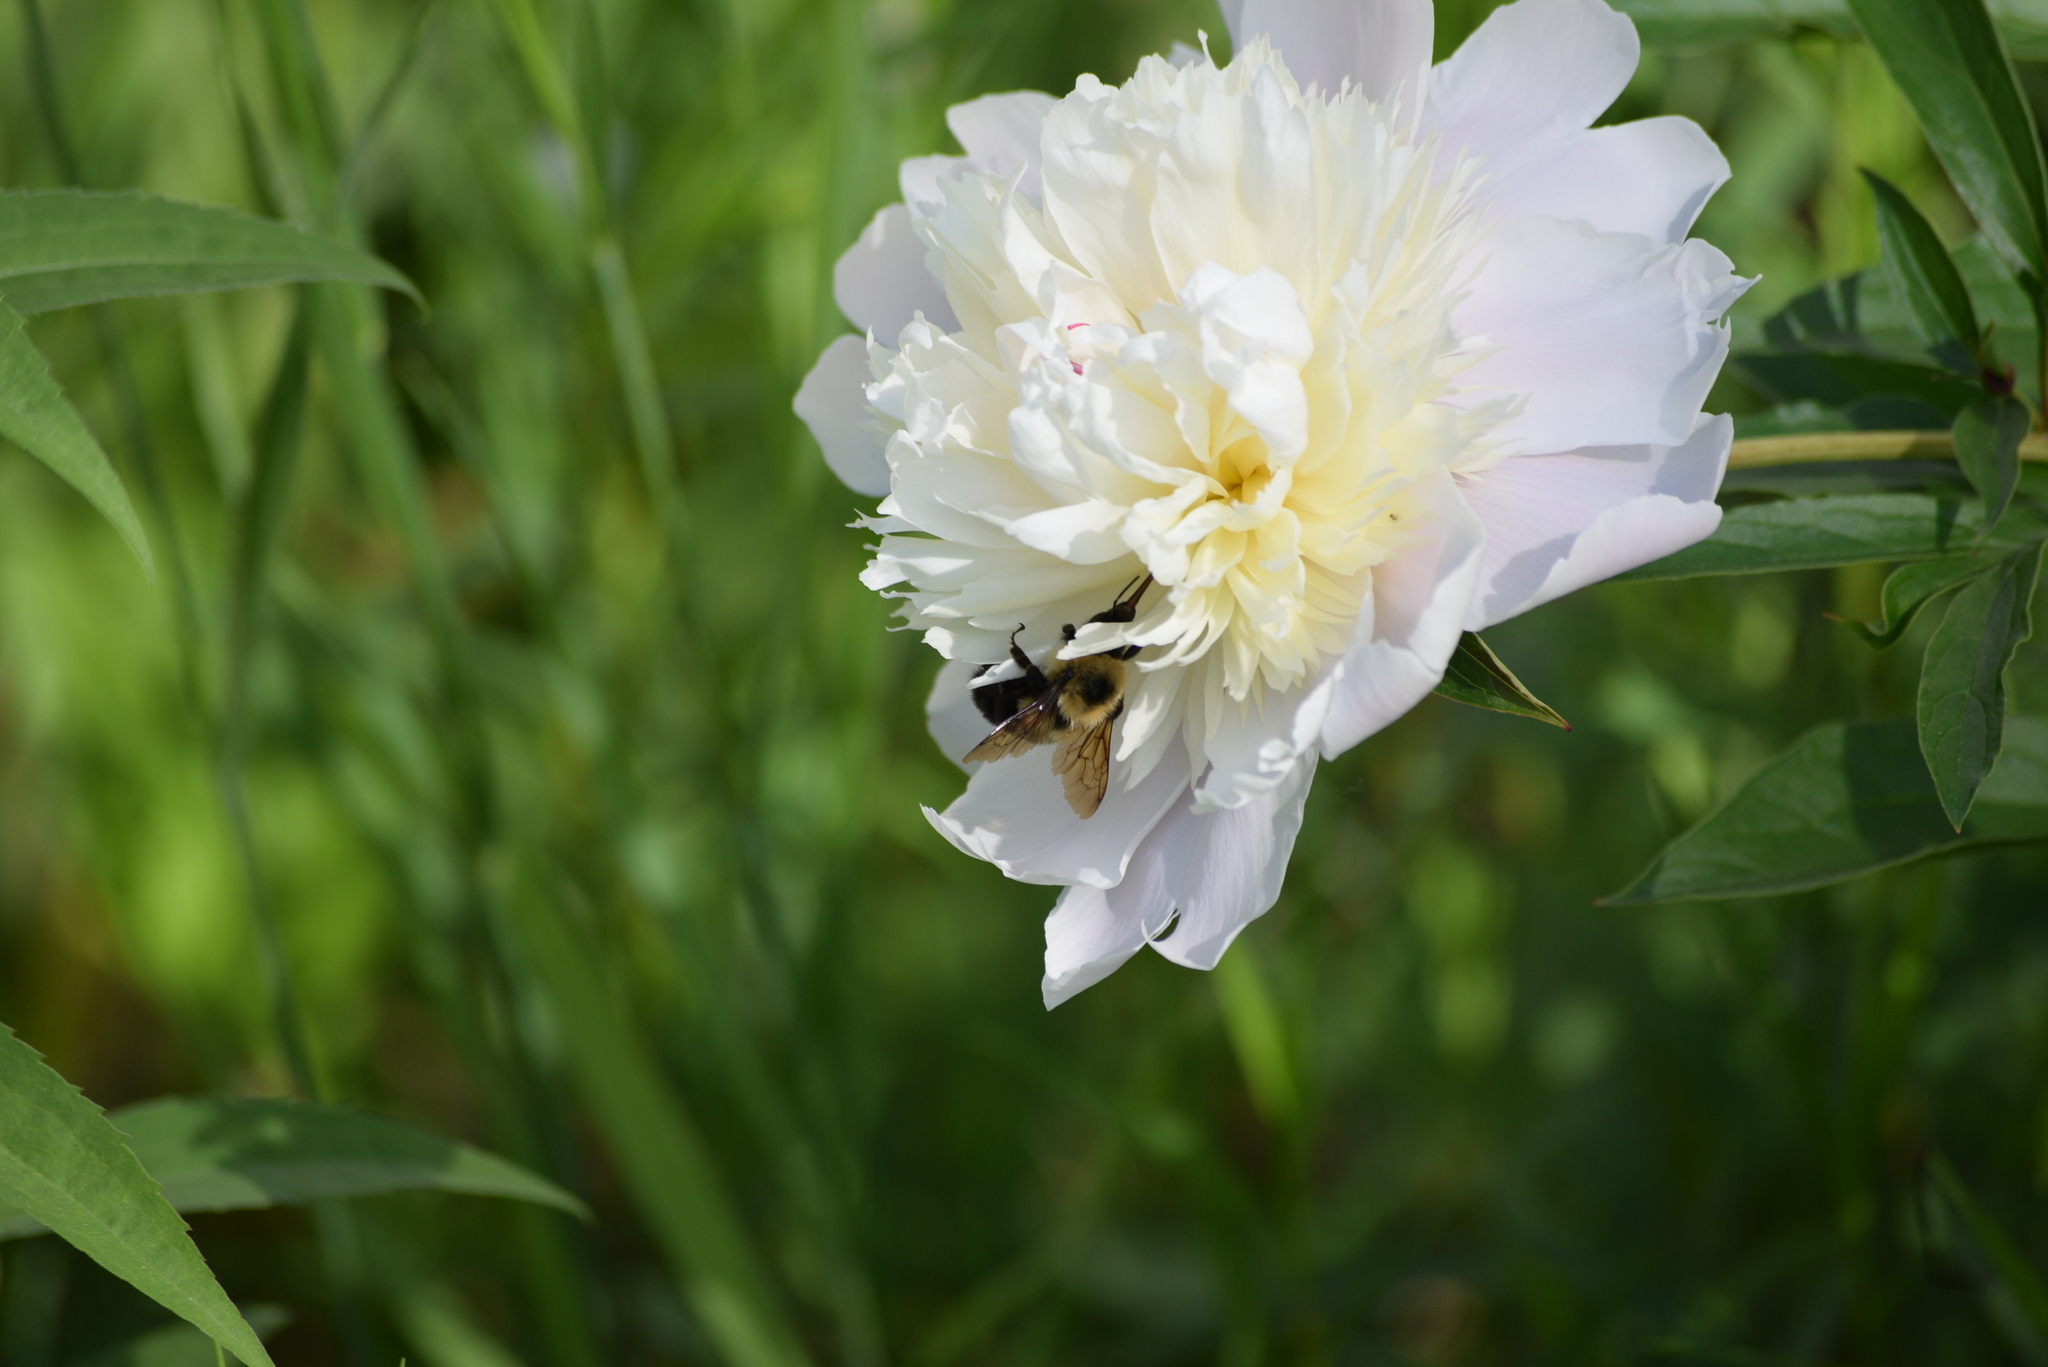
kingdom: Animalia
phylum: Arthropoda
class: Insecta
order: Hymenoptera
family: Apidae
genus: Bombus
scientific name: Bombus bimaculatus
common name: Two-spotted bumble bee
